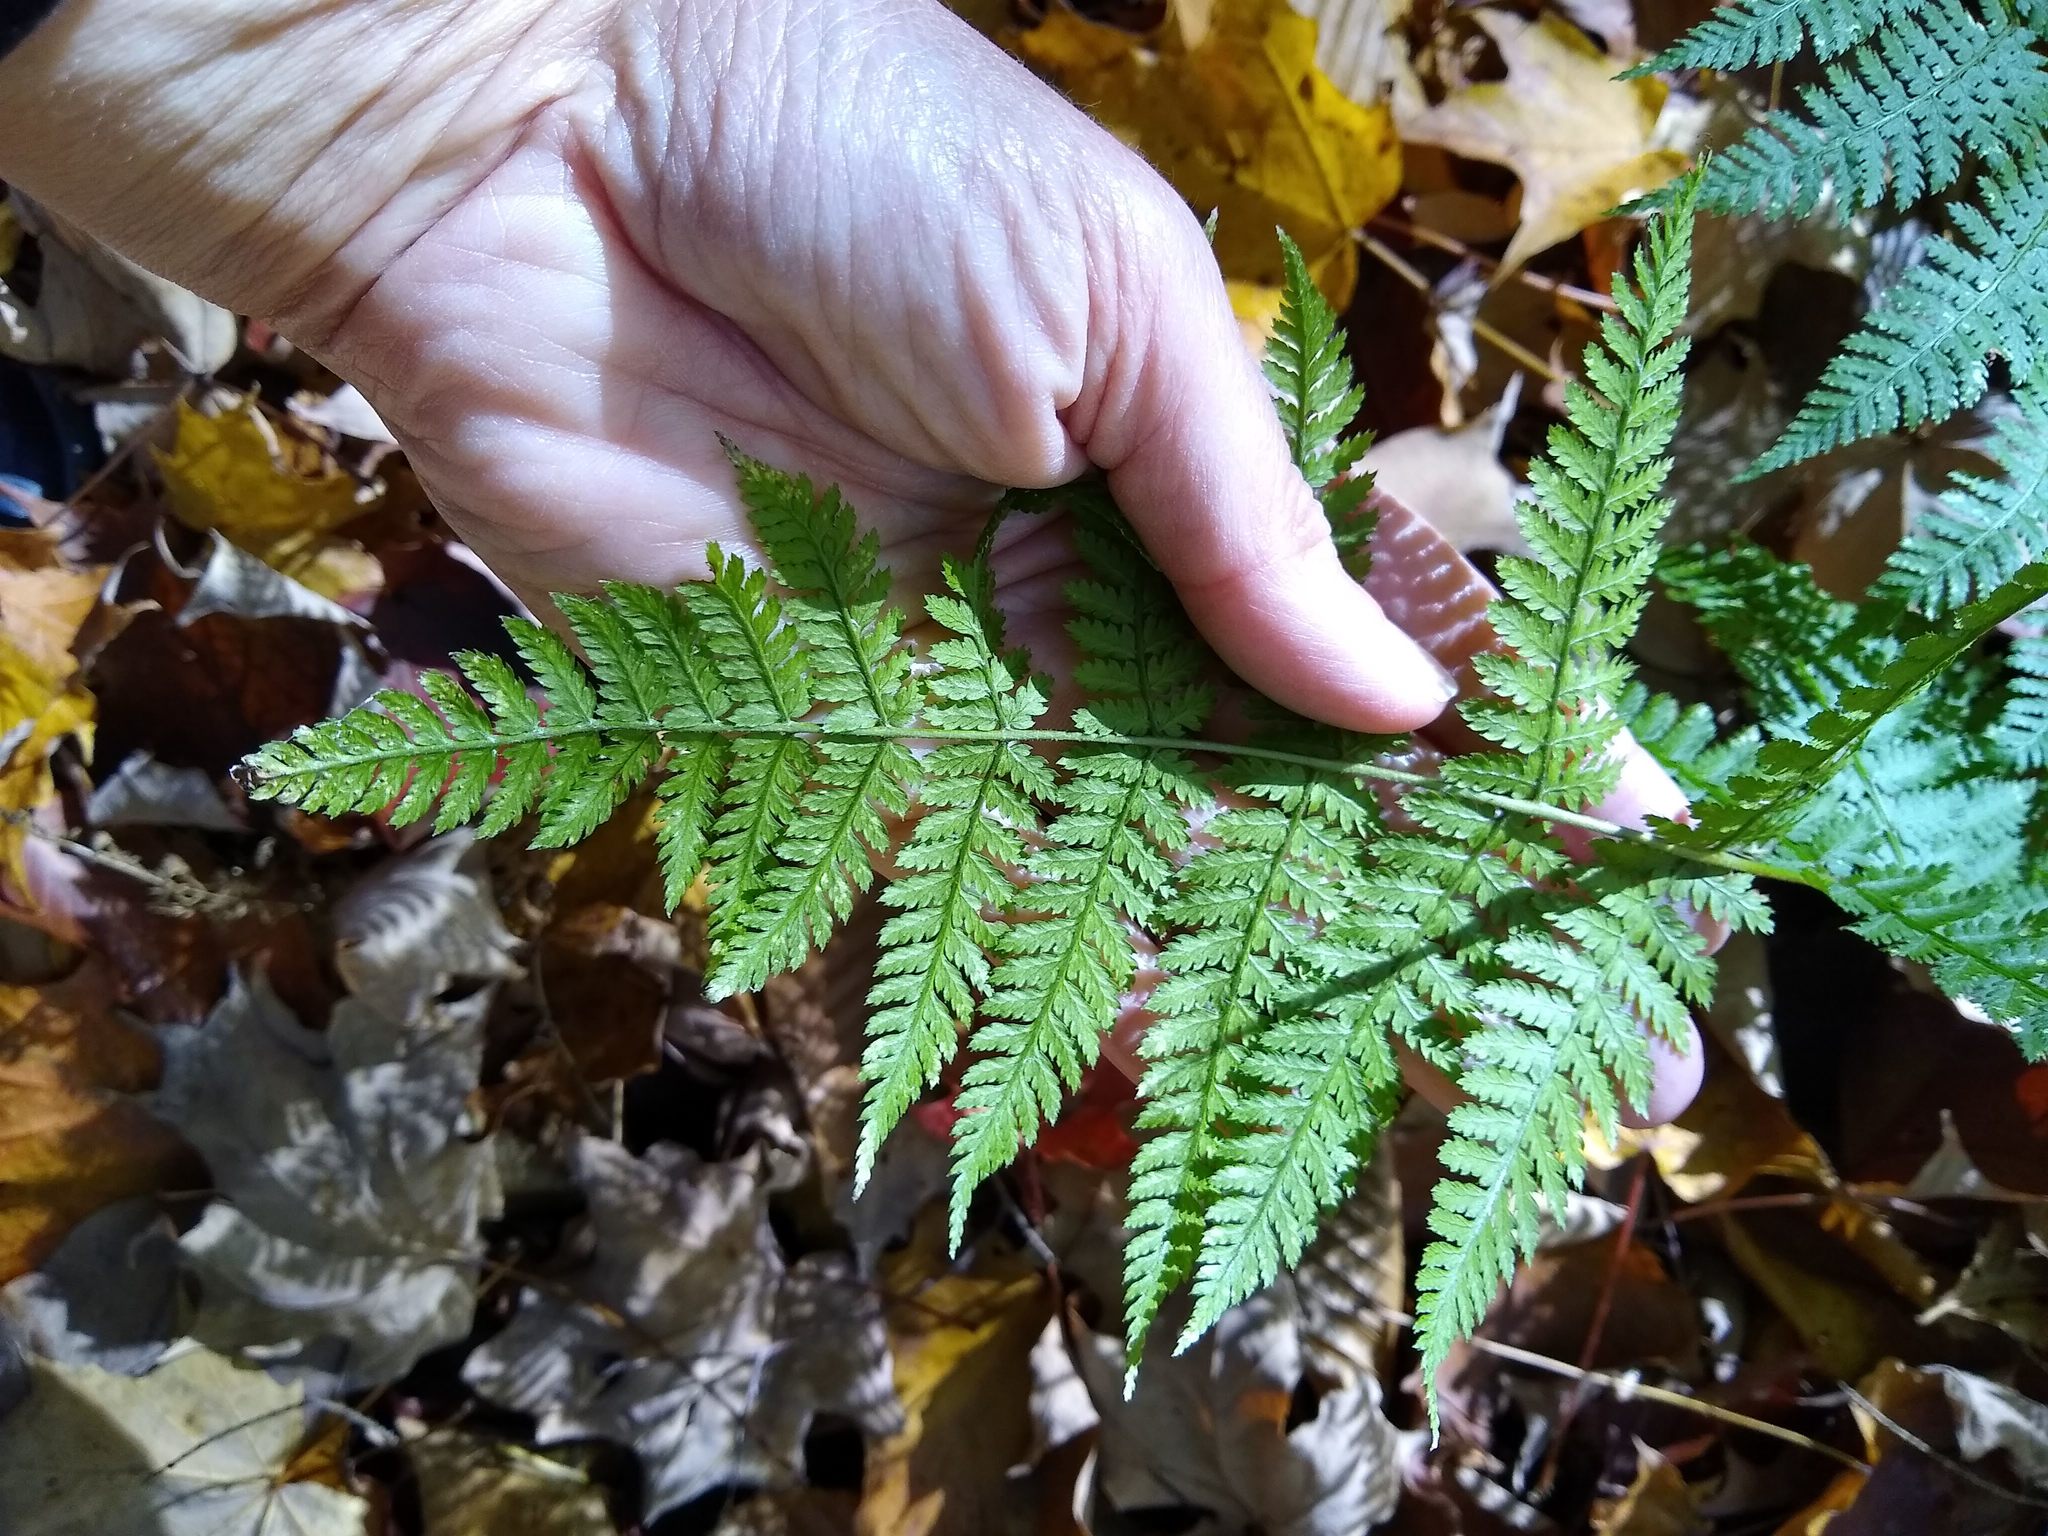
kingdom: Plantae
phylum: Tracheophyta
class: Polypodiopsida
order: Polypodiales
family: Dryopteridaceae
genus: Dryopteris
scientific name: Dryopteris intermedia
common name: Evergreen wood fern
